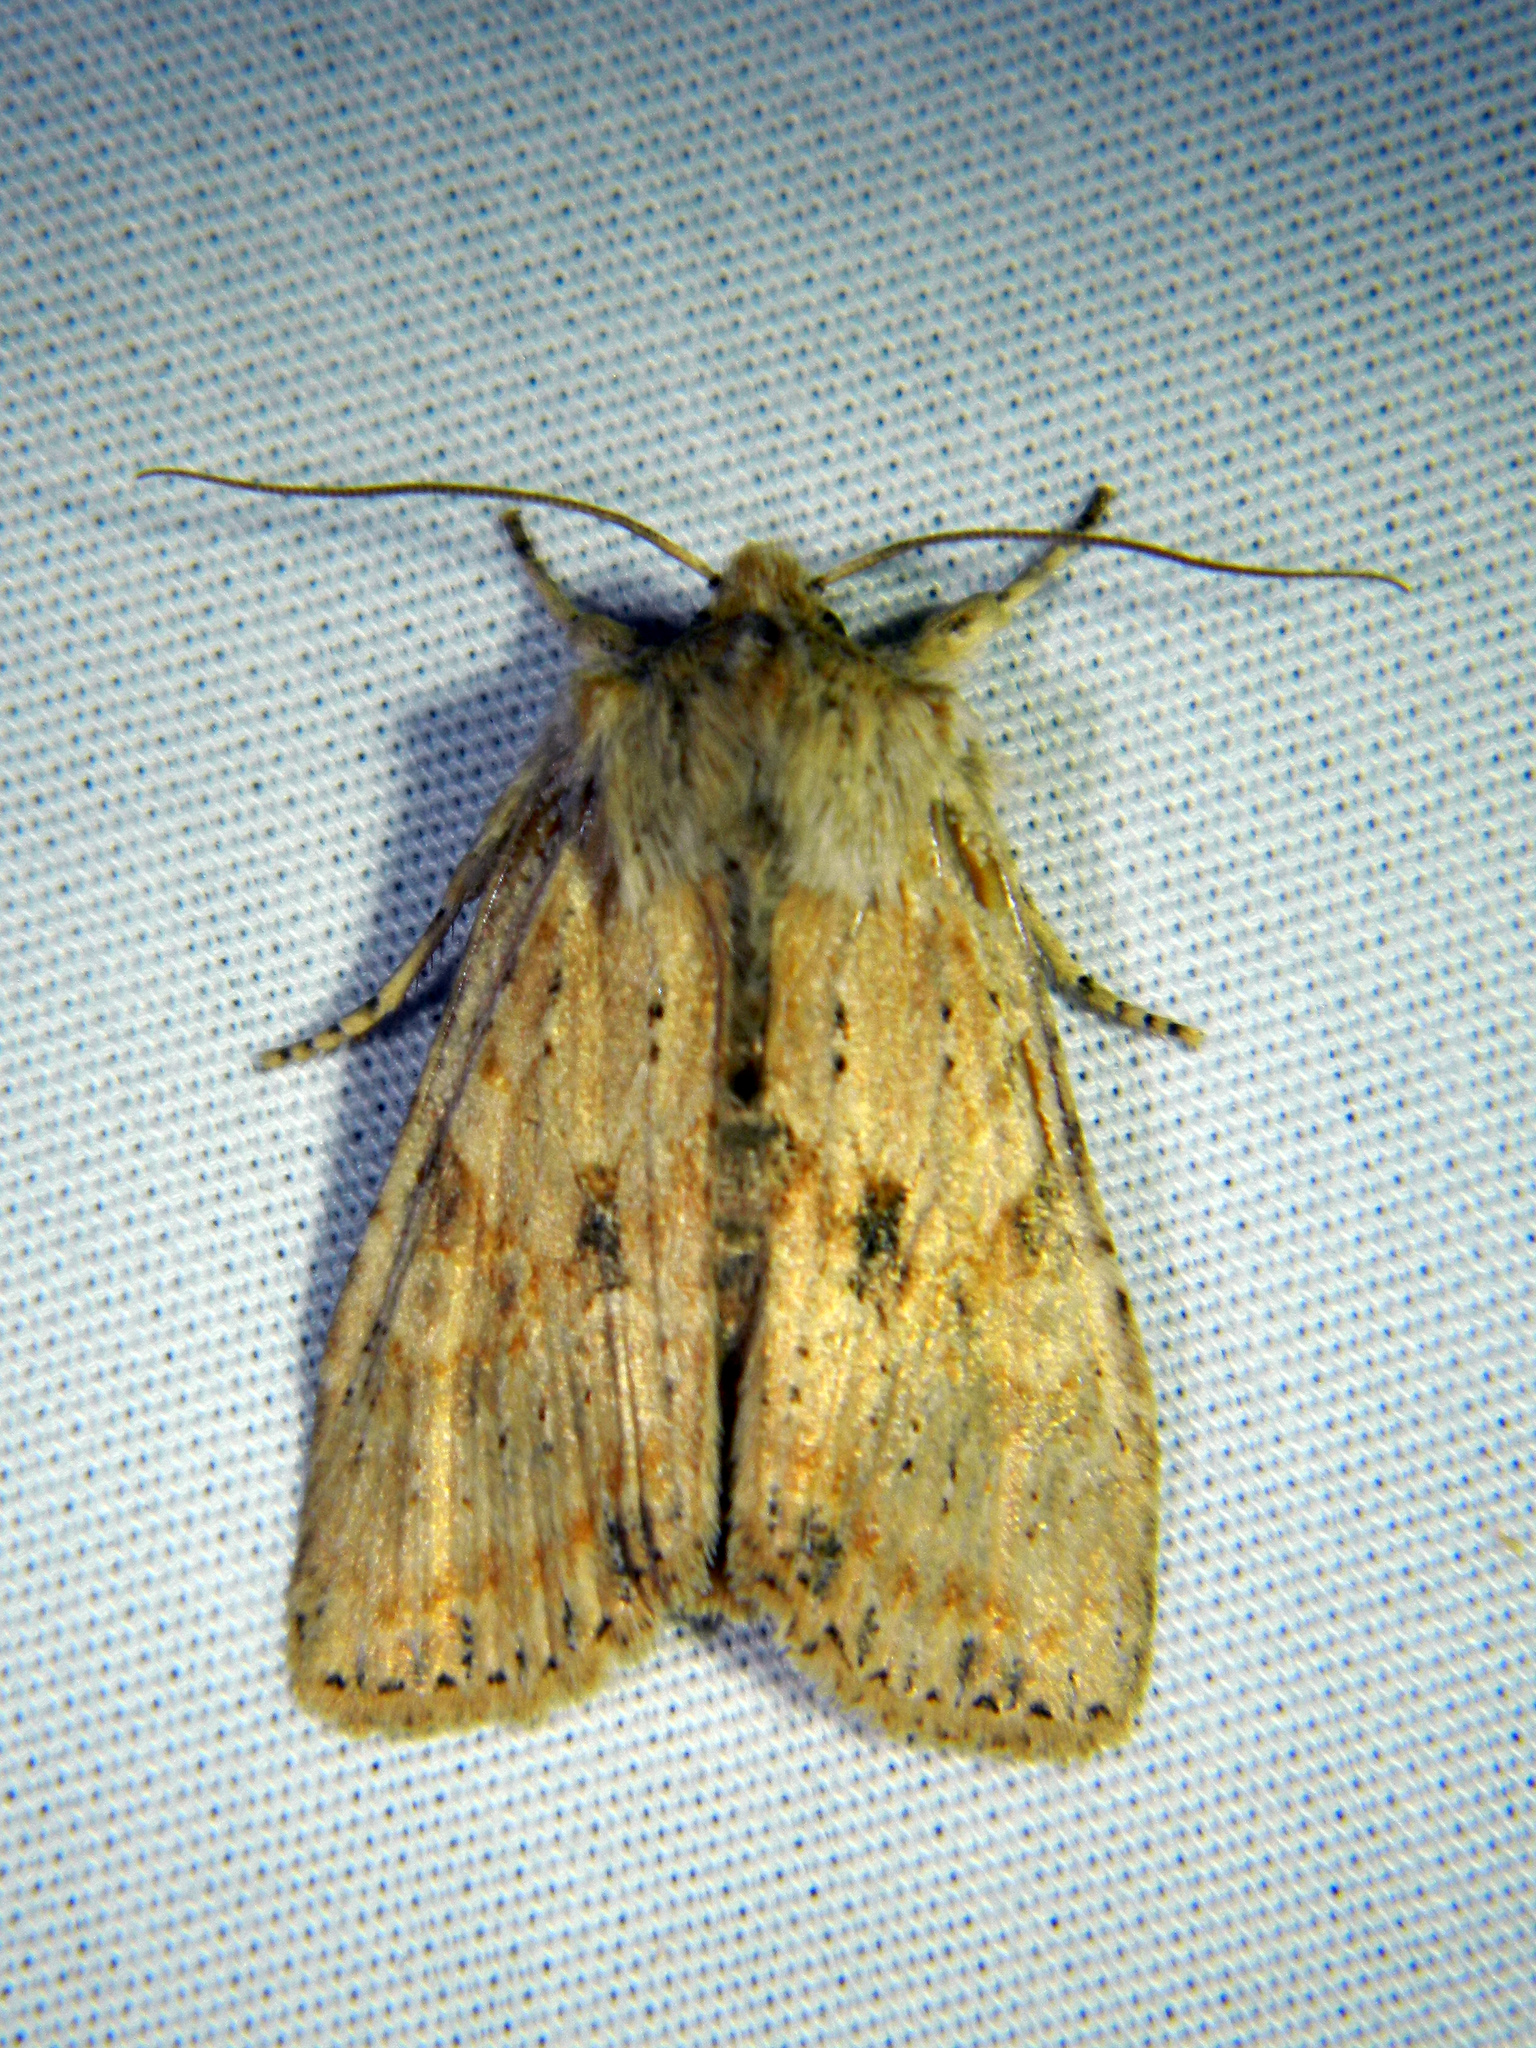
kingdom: Animalia
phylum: Arthropoda
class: Insecta
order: Lepidoptera
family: Noctuidae
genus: Lithophane
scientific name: Lithophane innominata
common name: Nameless pinion moth
